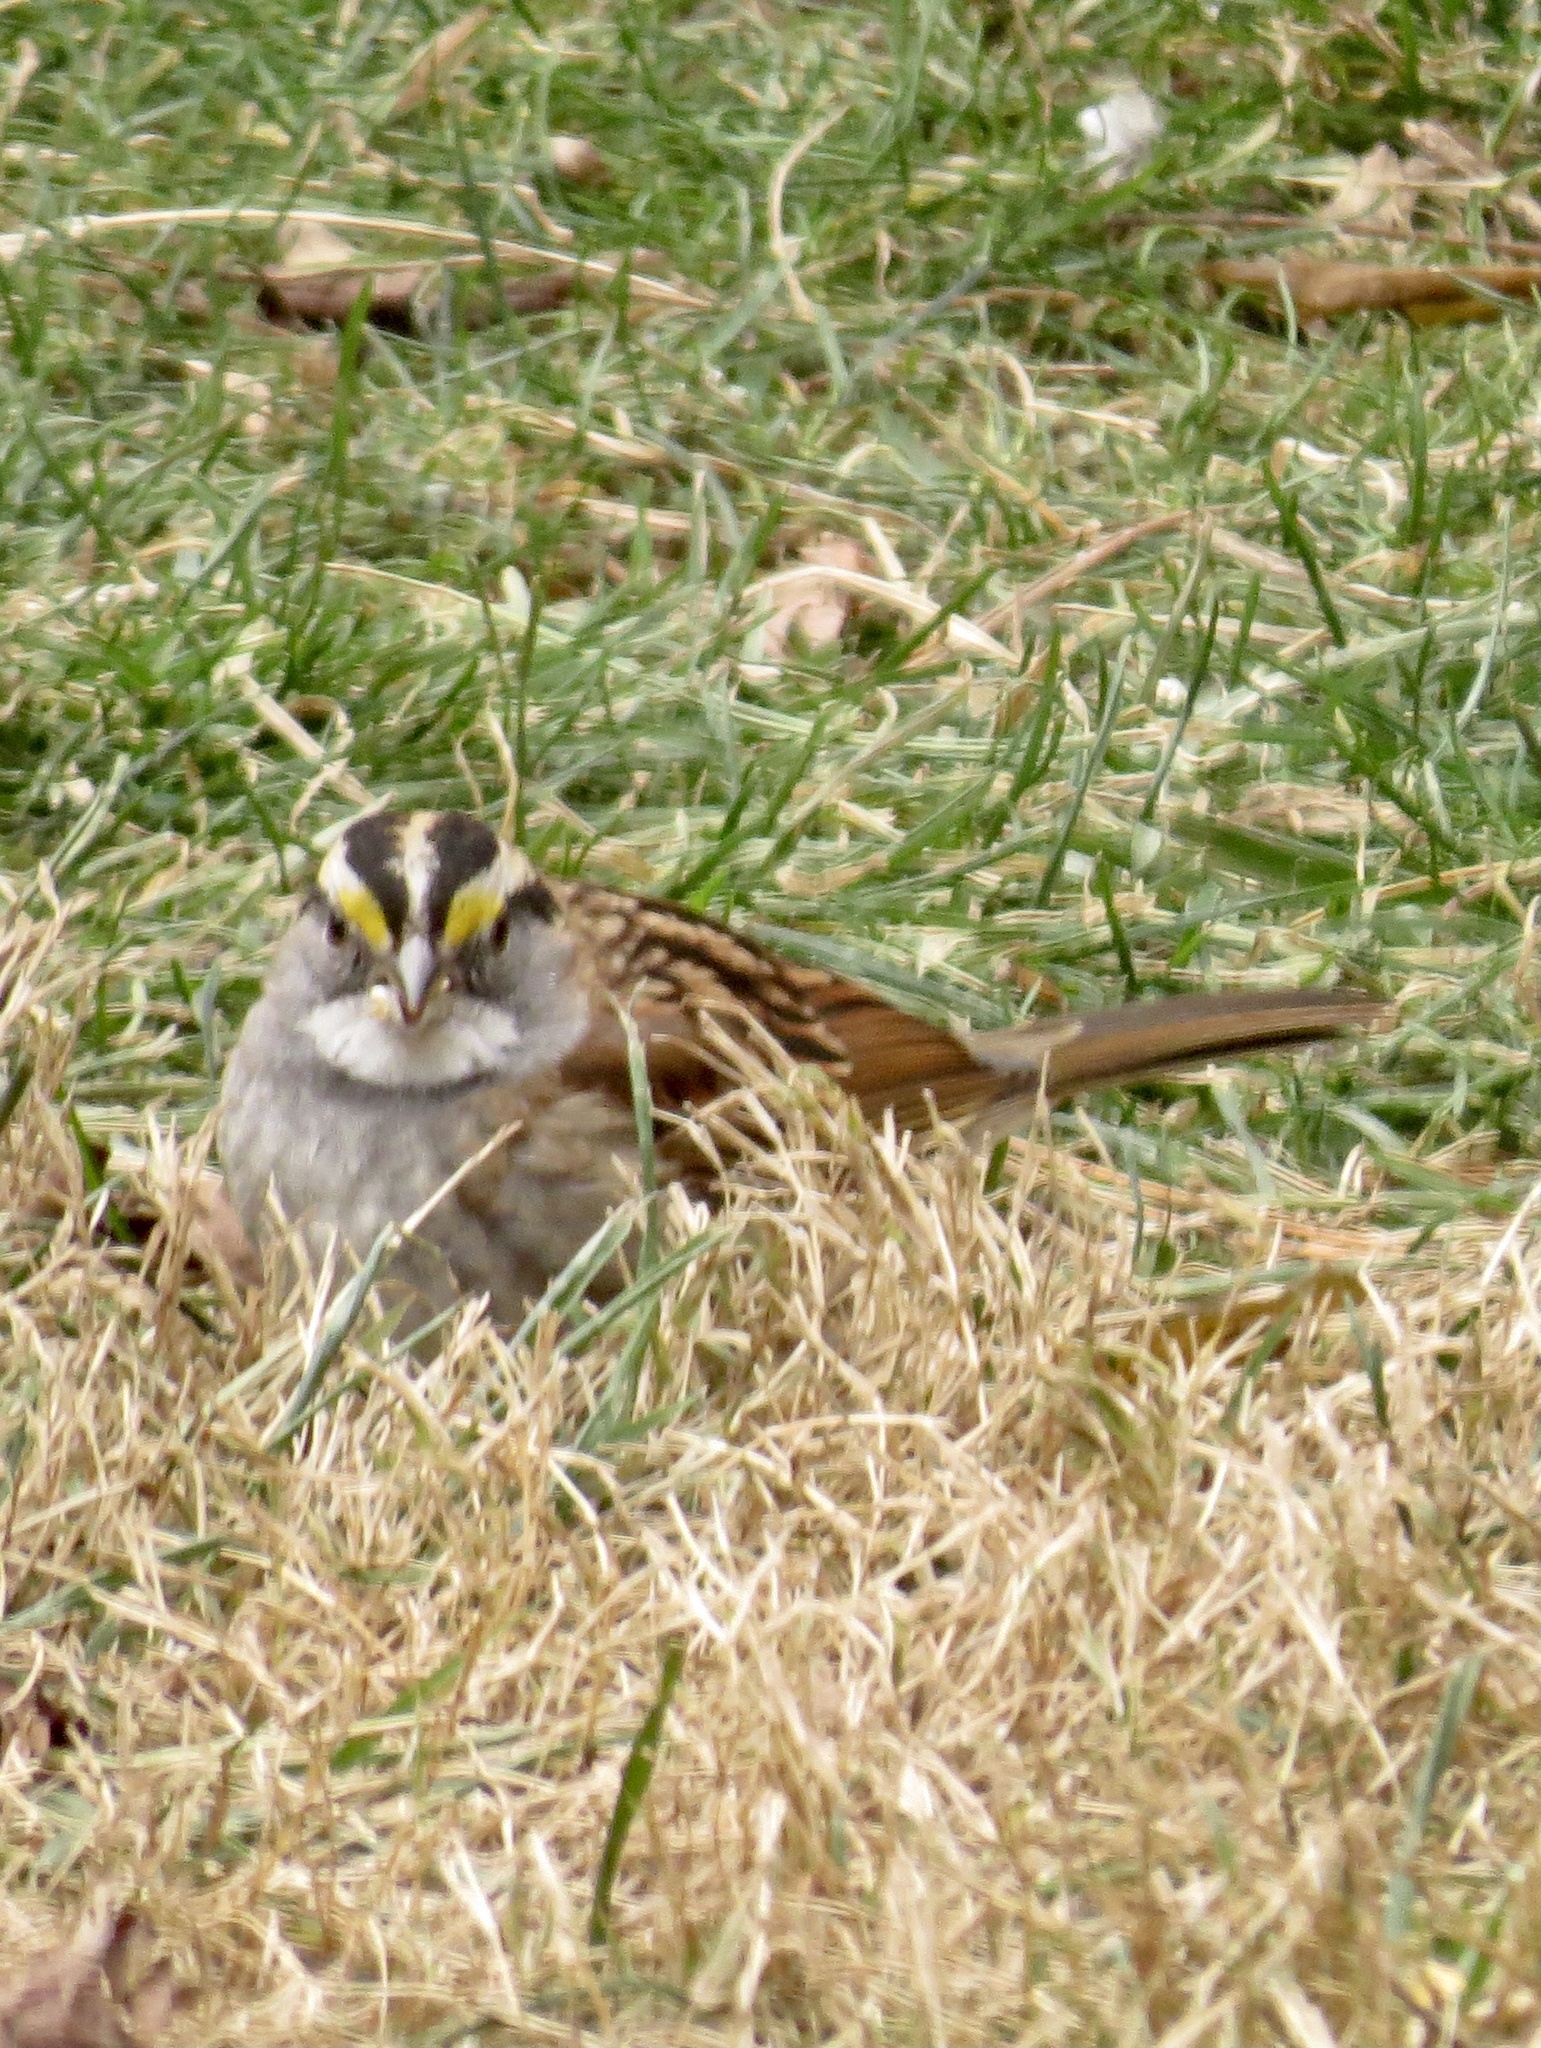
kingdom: Animalia
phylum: Chordata
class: Aves
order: Passeriformes
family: Passerellidae
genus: Zonotrichia
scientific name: Zonotrichia albicollis
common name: White-throated sparrow
